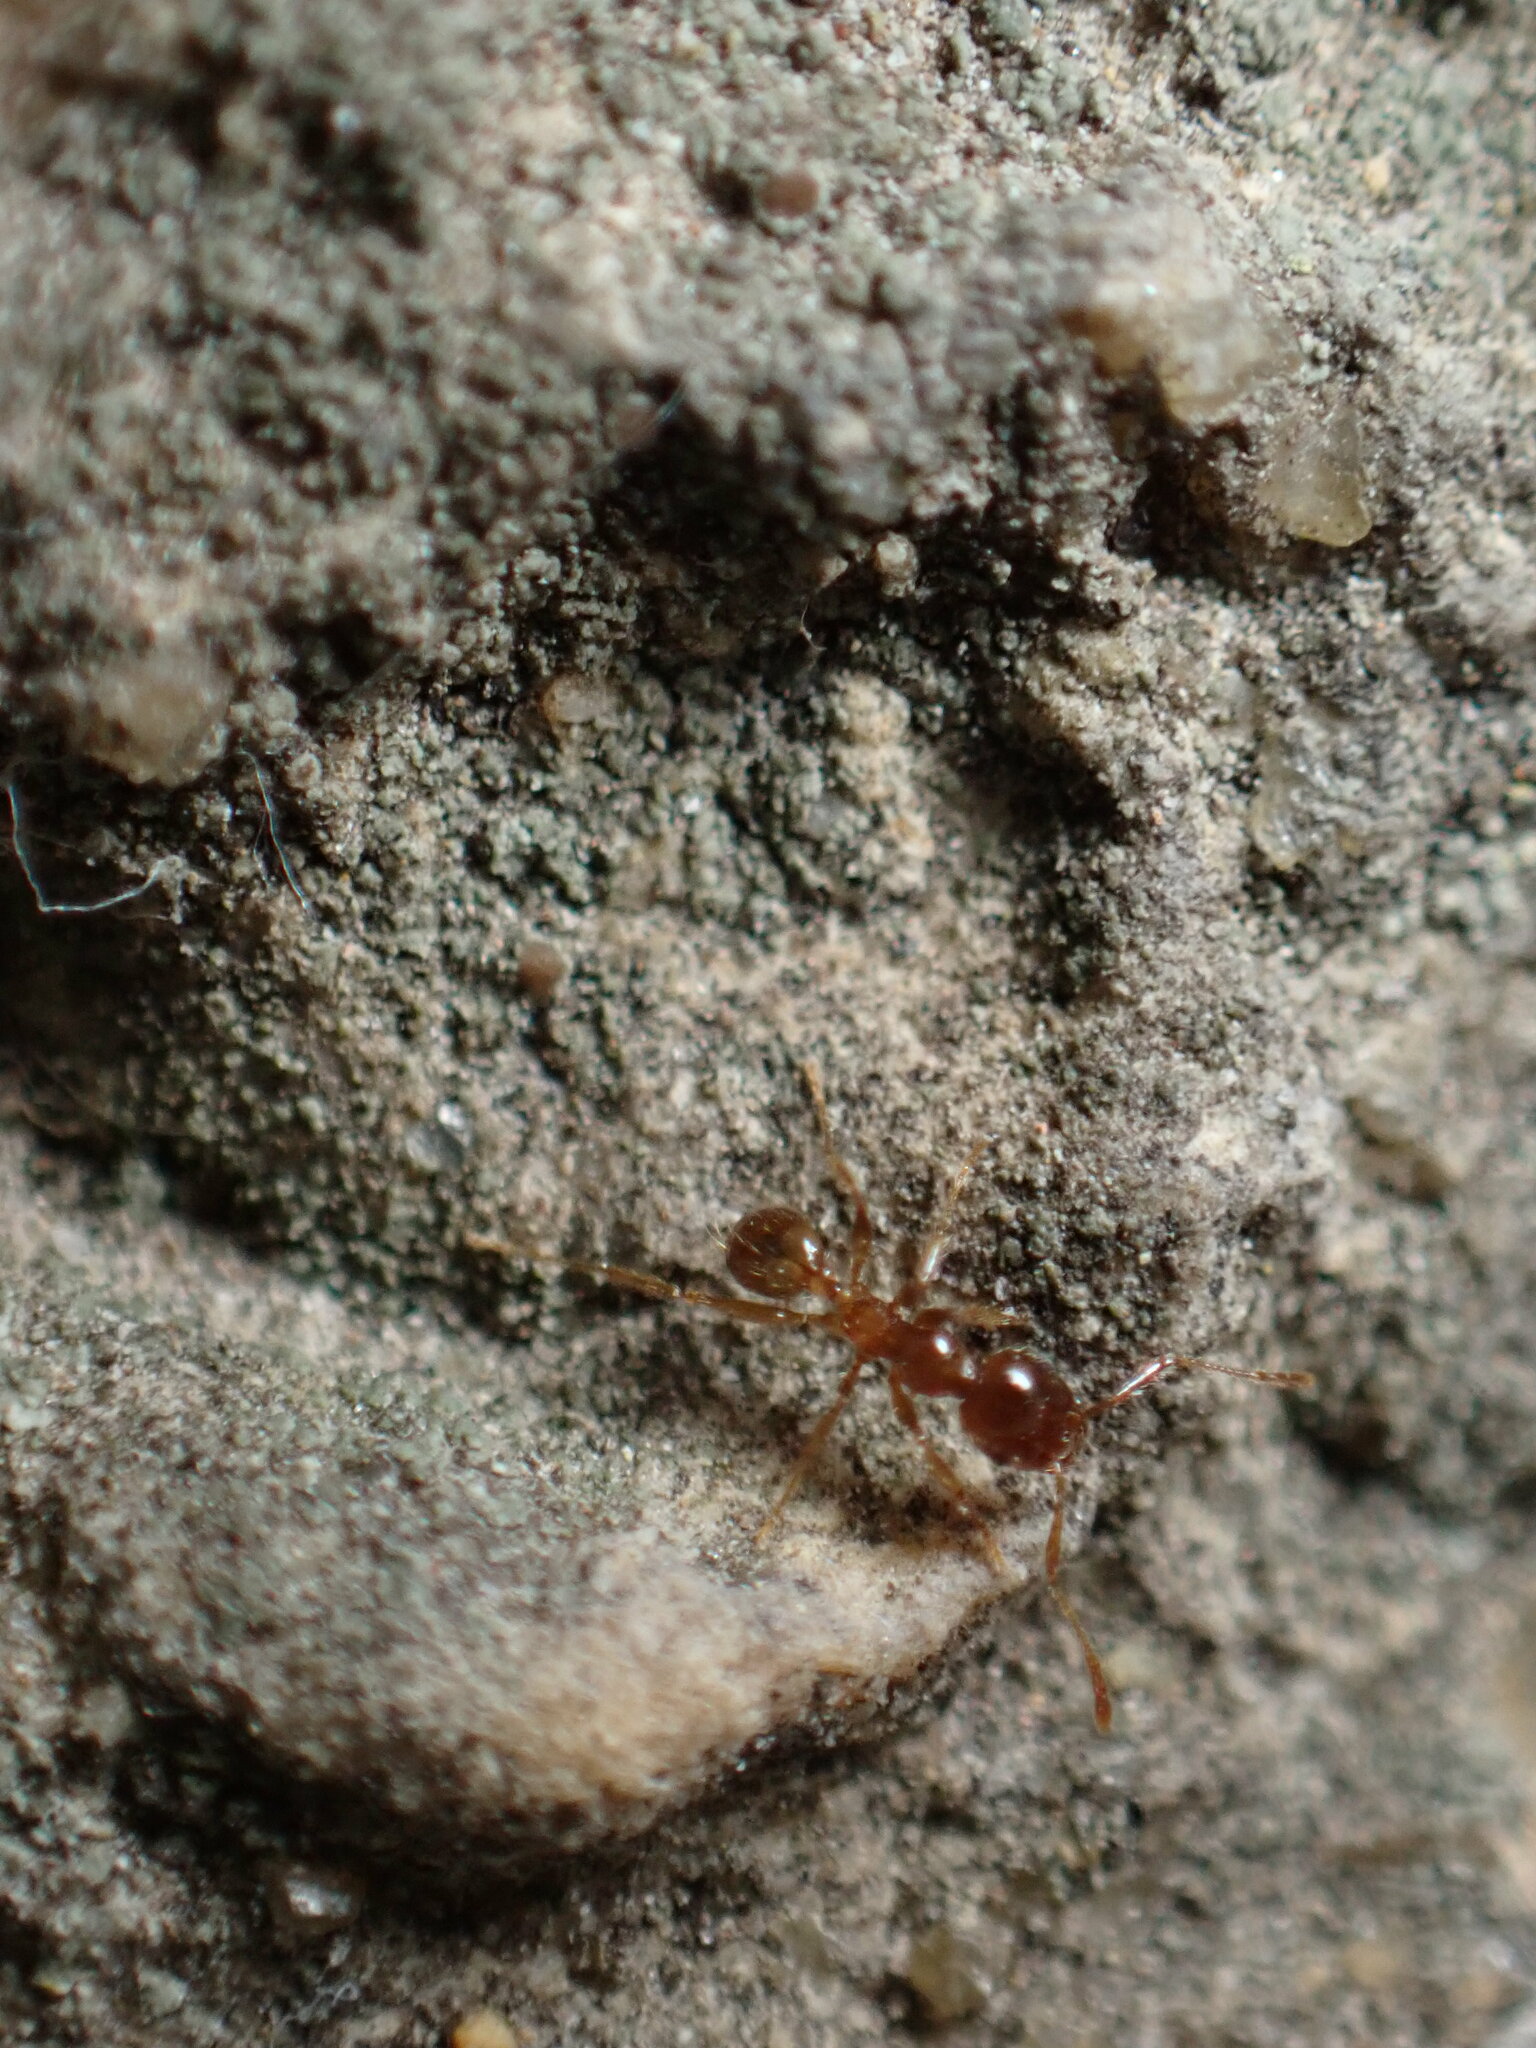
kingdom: Animalia
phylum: Arthropoda
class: Insecta
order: Hymenoptera
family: Formicidae
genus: Pheidole
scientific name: Pheidole pallidula
